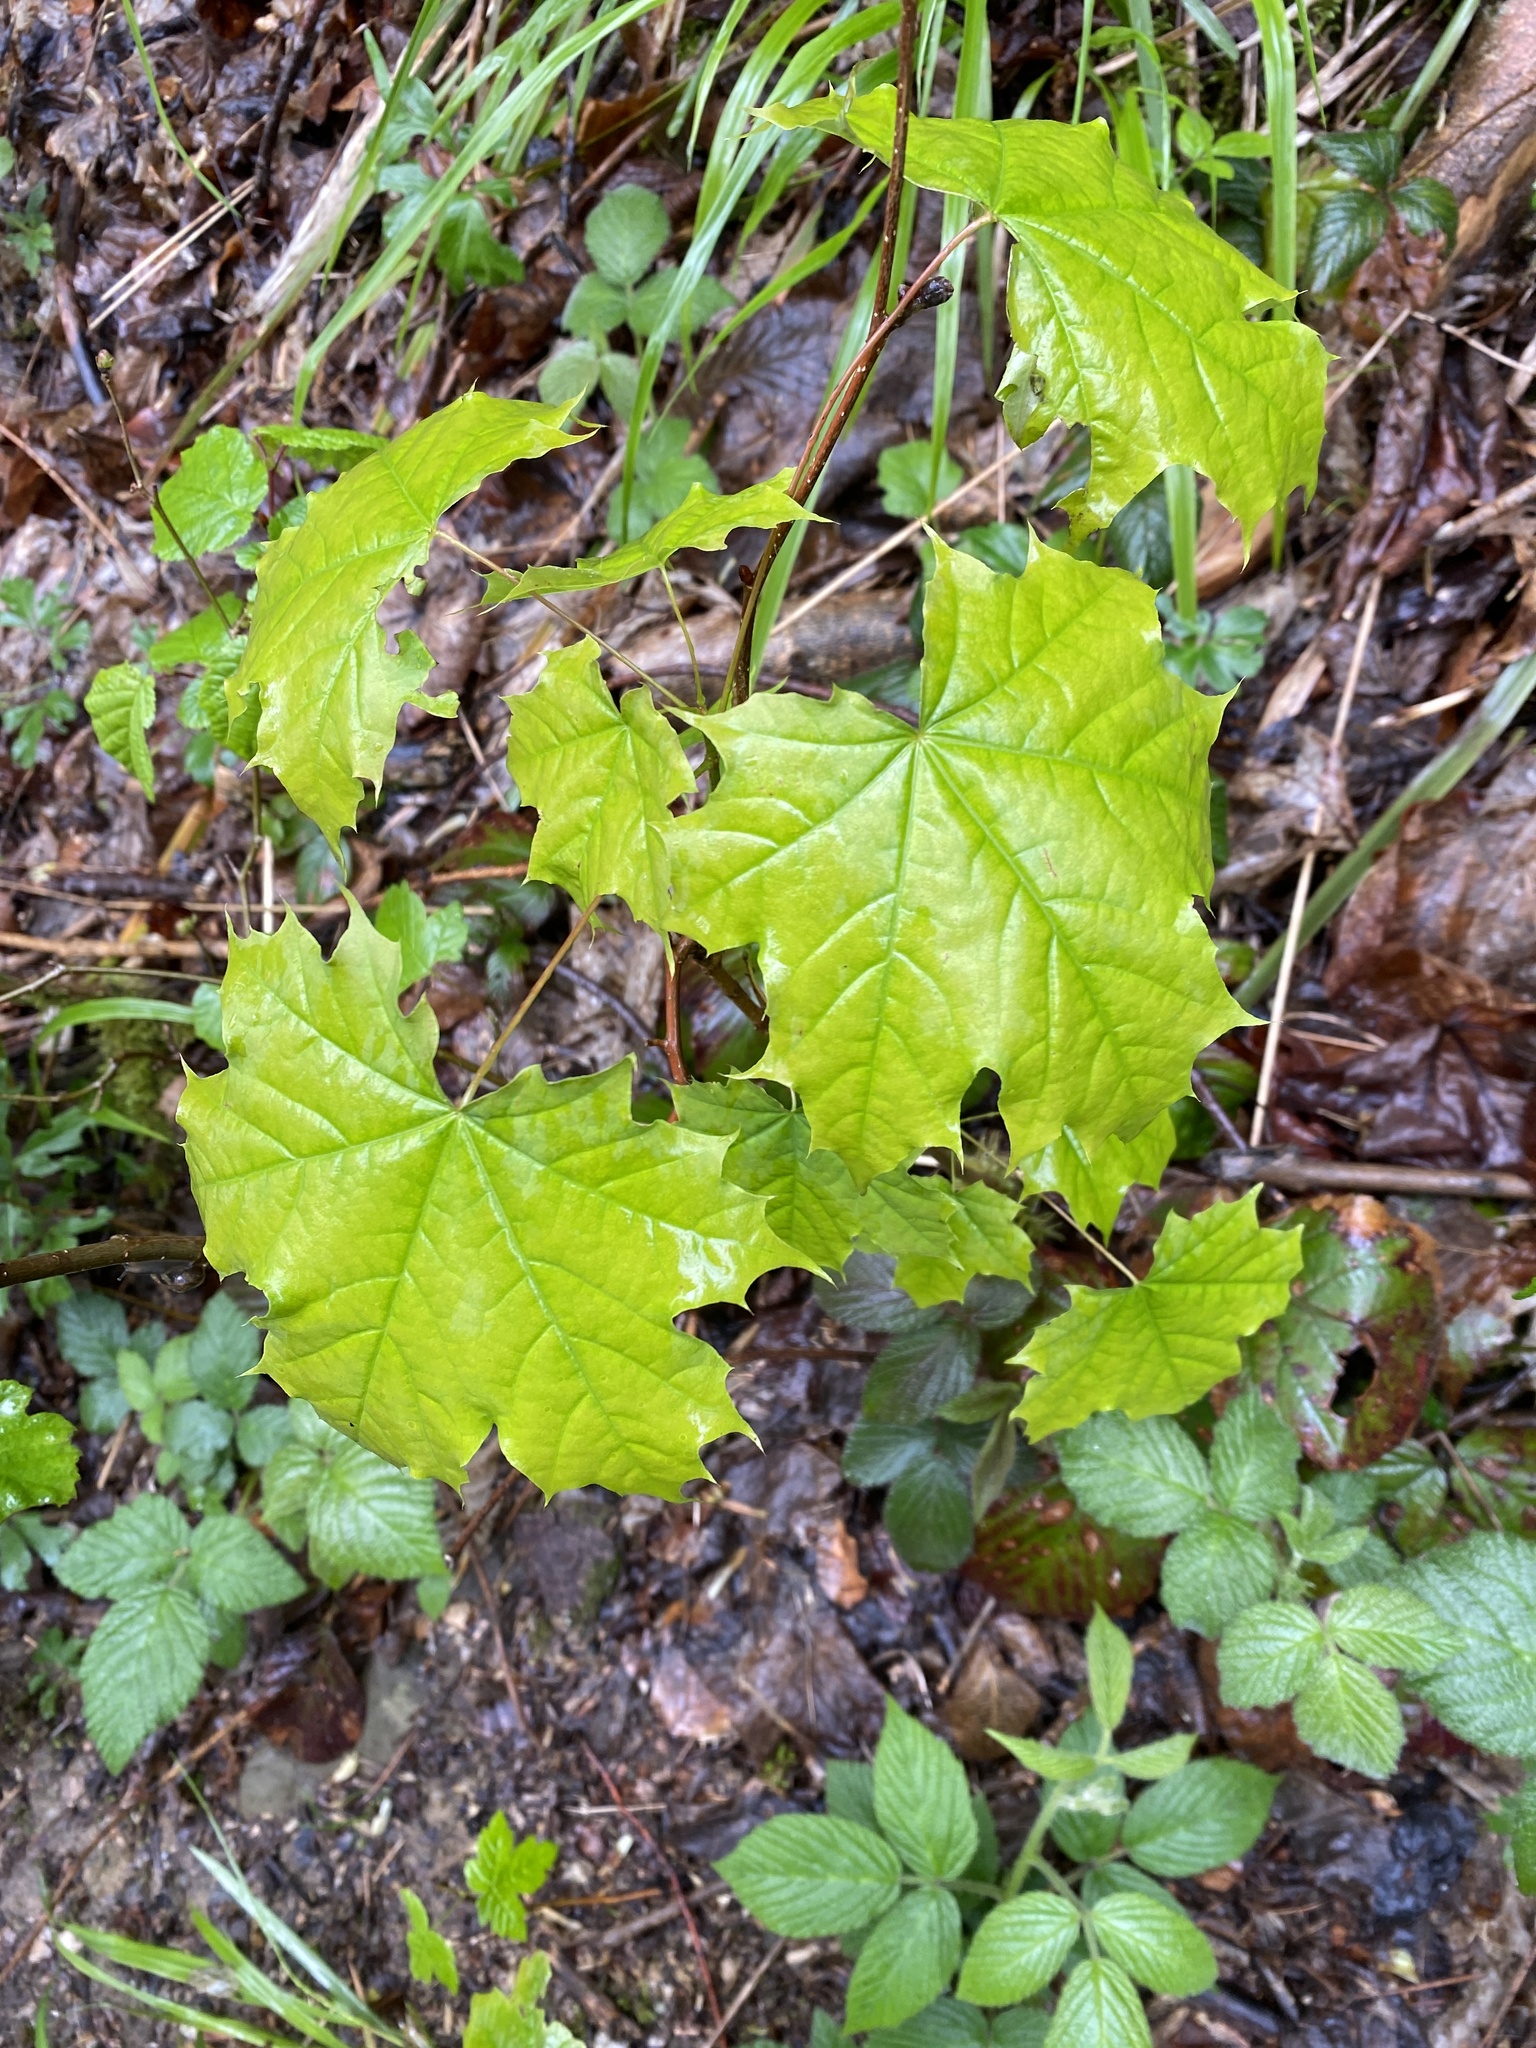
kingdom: Plantae
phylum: Tracheophyta
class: Magnoliopsida
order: Sapindales
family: Sapindaceae
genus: Acer
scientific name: Acer platanoides
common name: Norway maple
